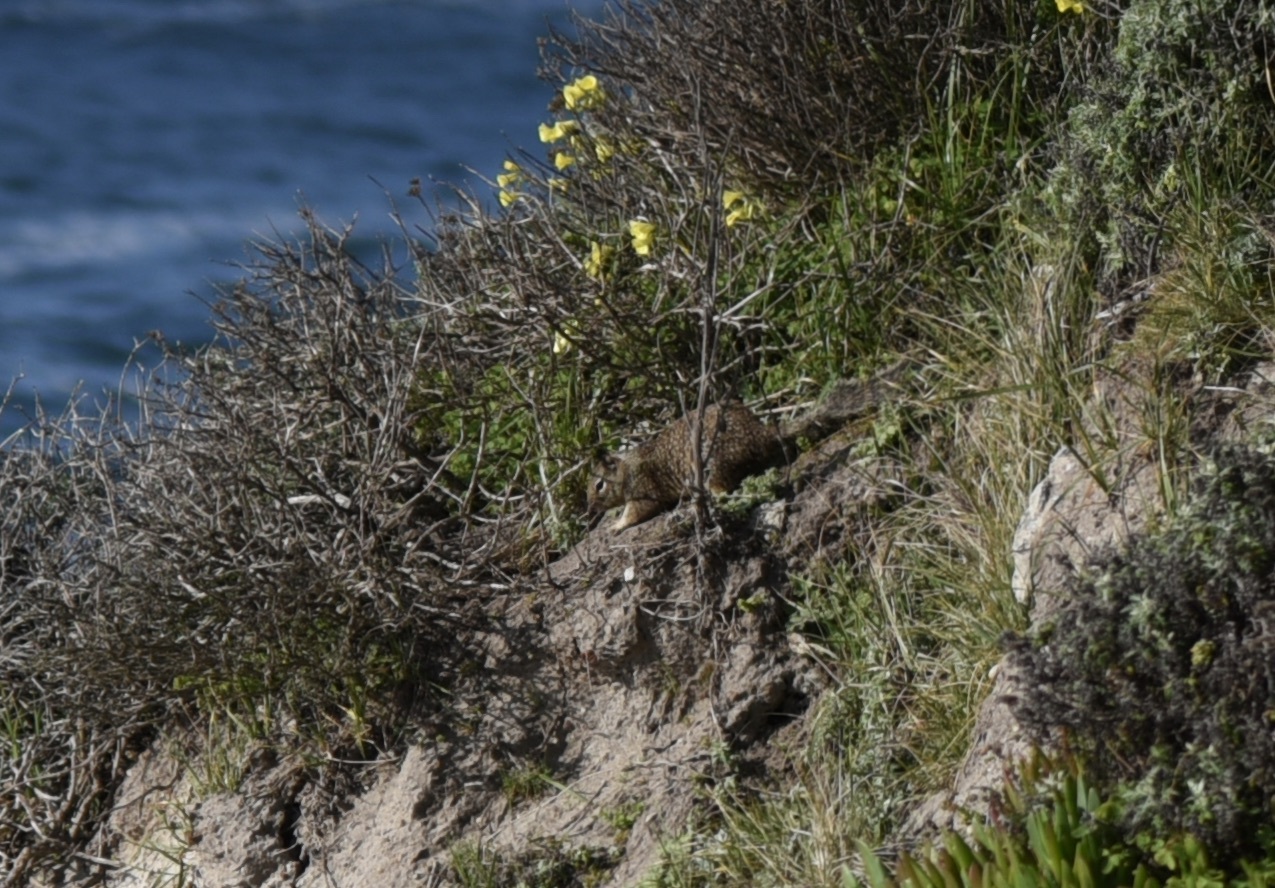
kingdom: Animalia
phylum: Chordata
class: Mammalia
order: Rodentia
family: Sciuridae
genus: Otospermophilus
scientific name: Otospermophilus beecheyi
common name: California ground squirrel
